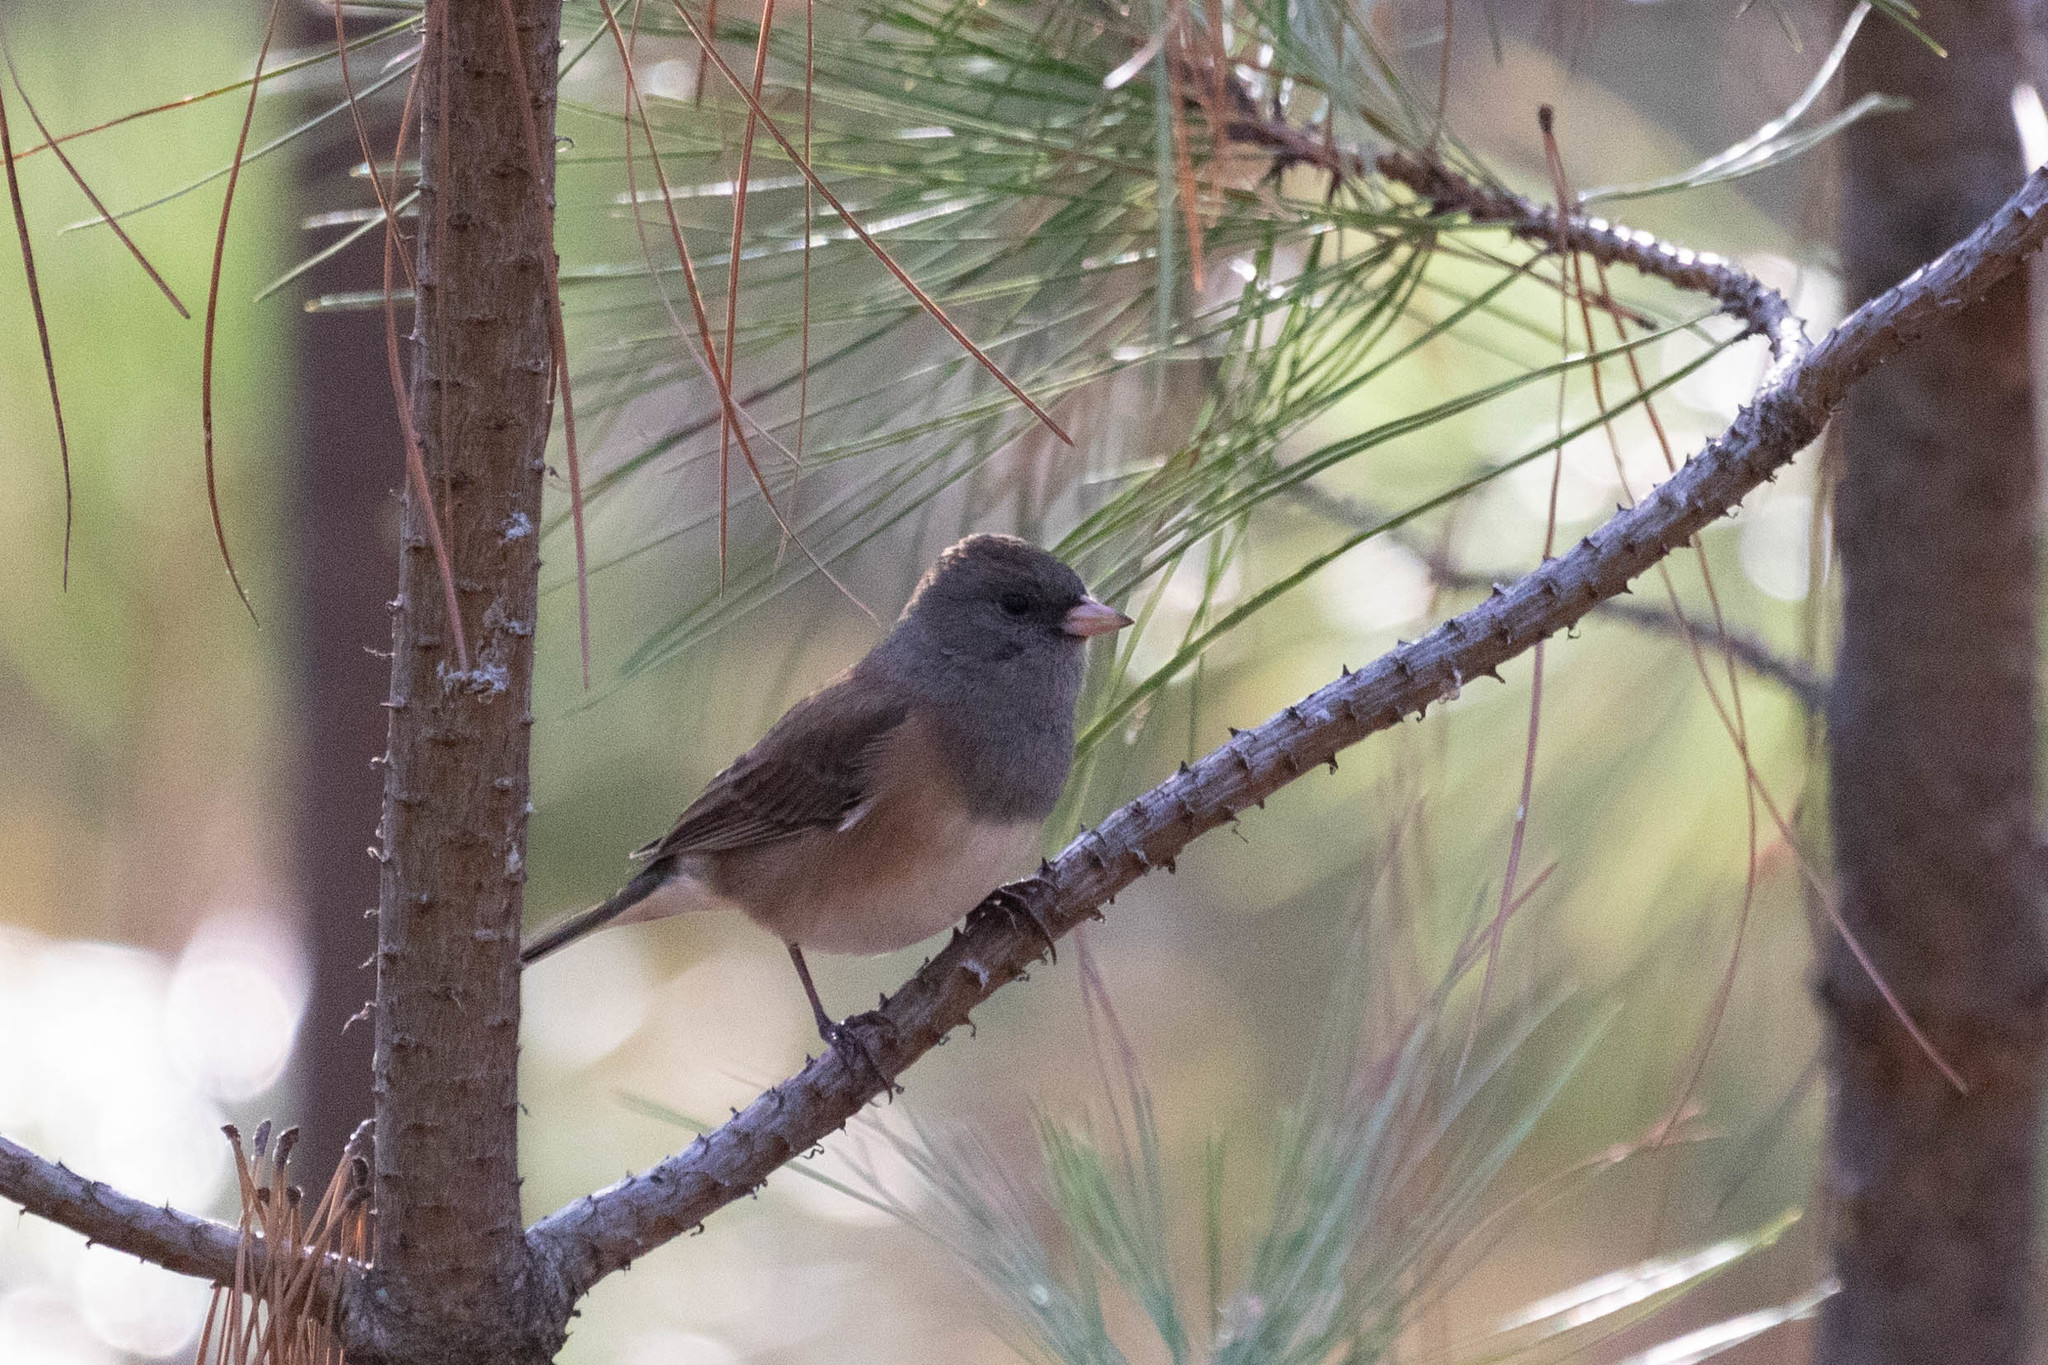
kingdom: Animalia
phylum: Chordata
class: Aves
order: Passeriformes
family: Passerellidae
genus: Junco
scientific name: Junco hyemalis
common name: Dark-eyed junco
